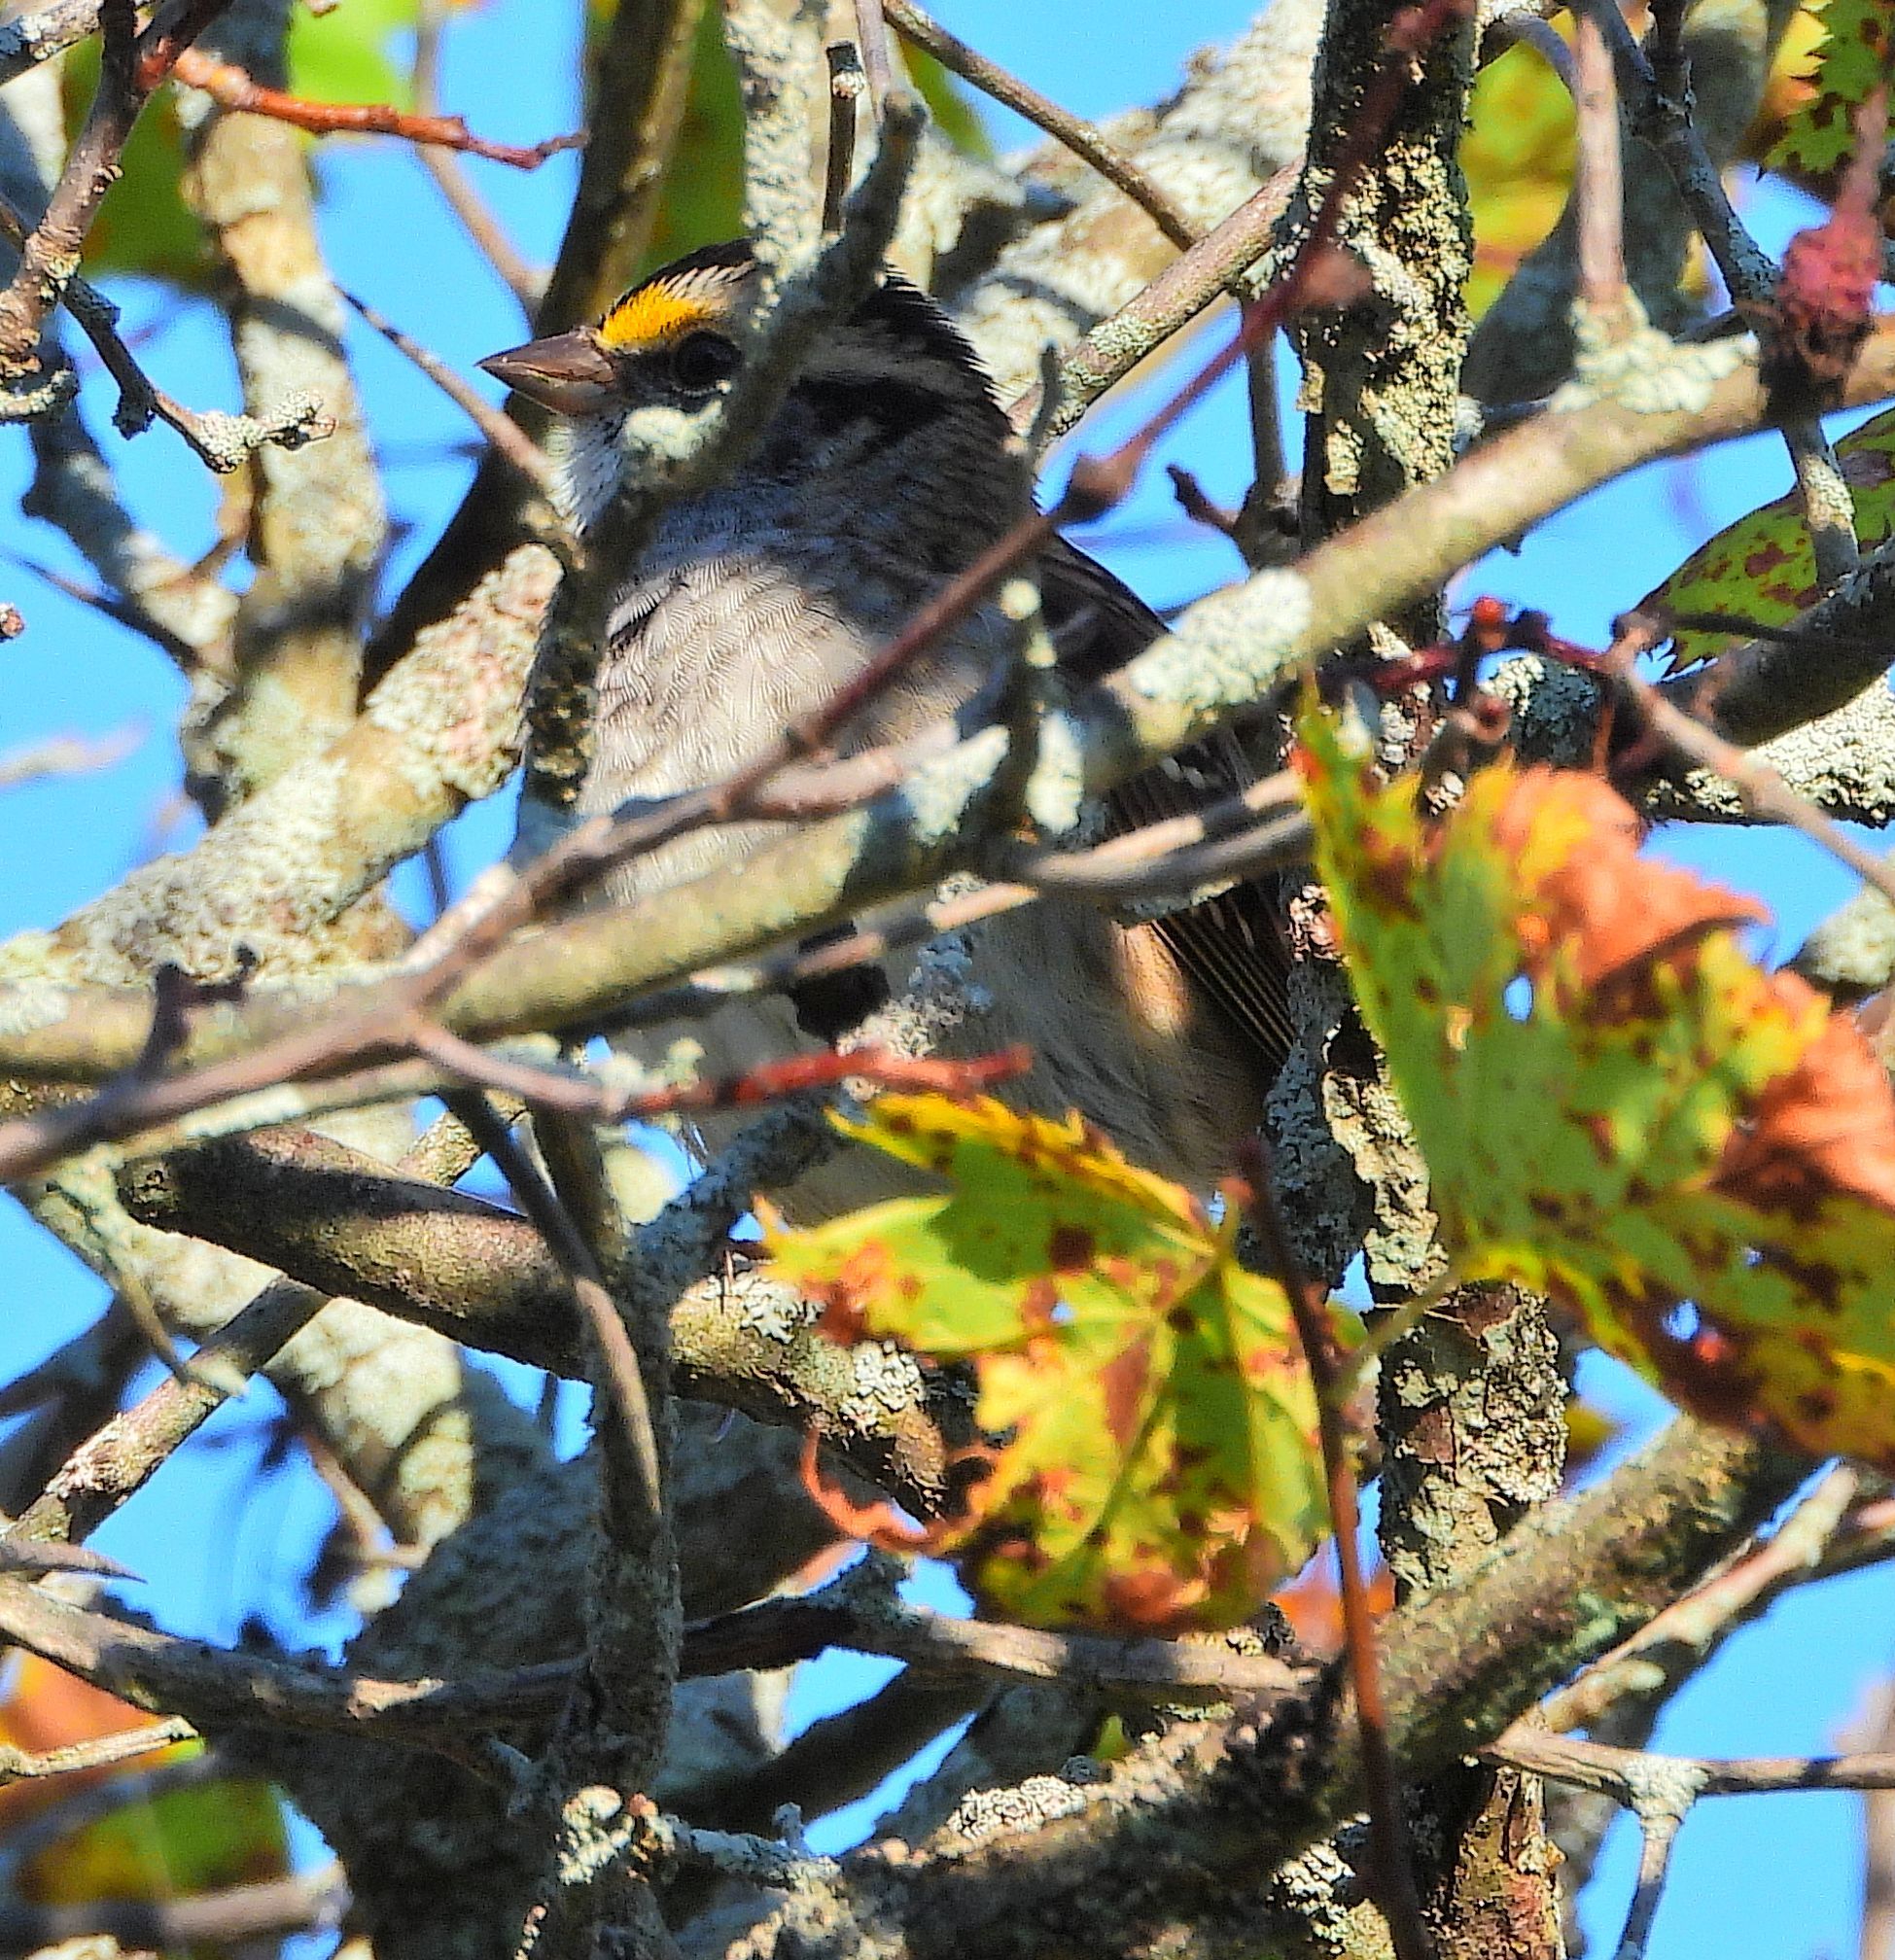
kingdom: Animalia
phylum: Chordata
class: Aves
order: Passeriformes
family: Passerellidae
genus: Zonotrichia
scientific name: Zonotrichia albicollis
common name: White-throated sparrow
